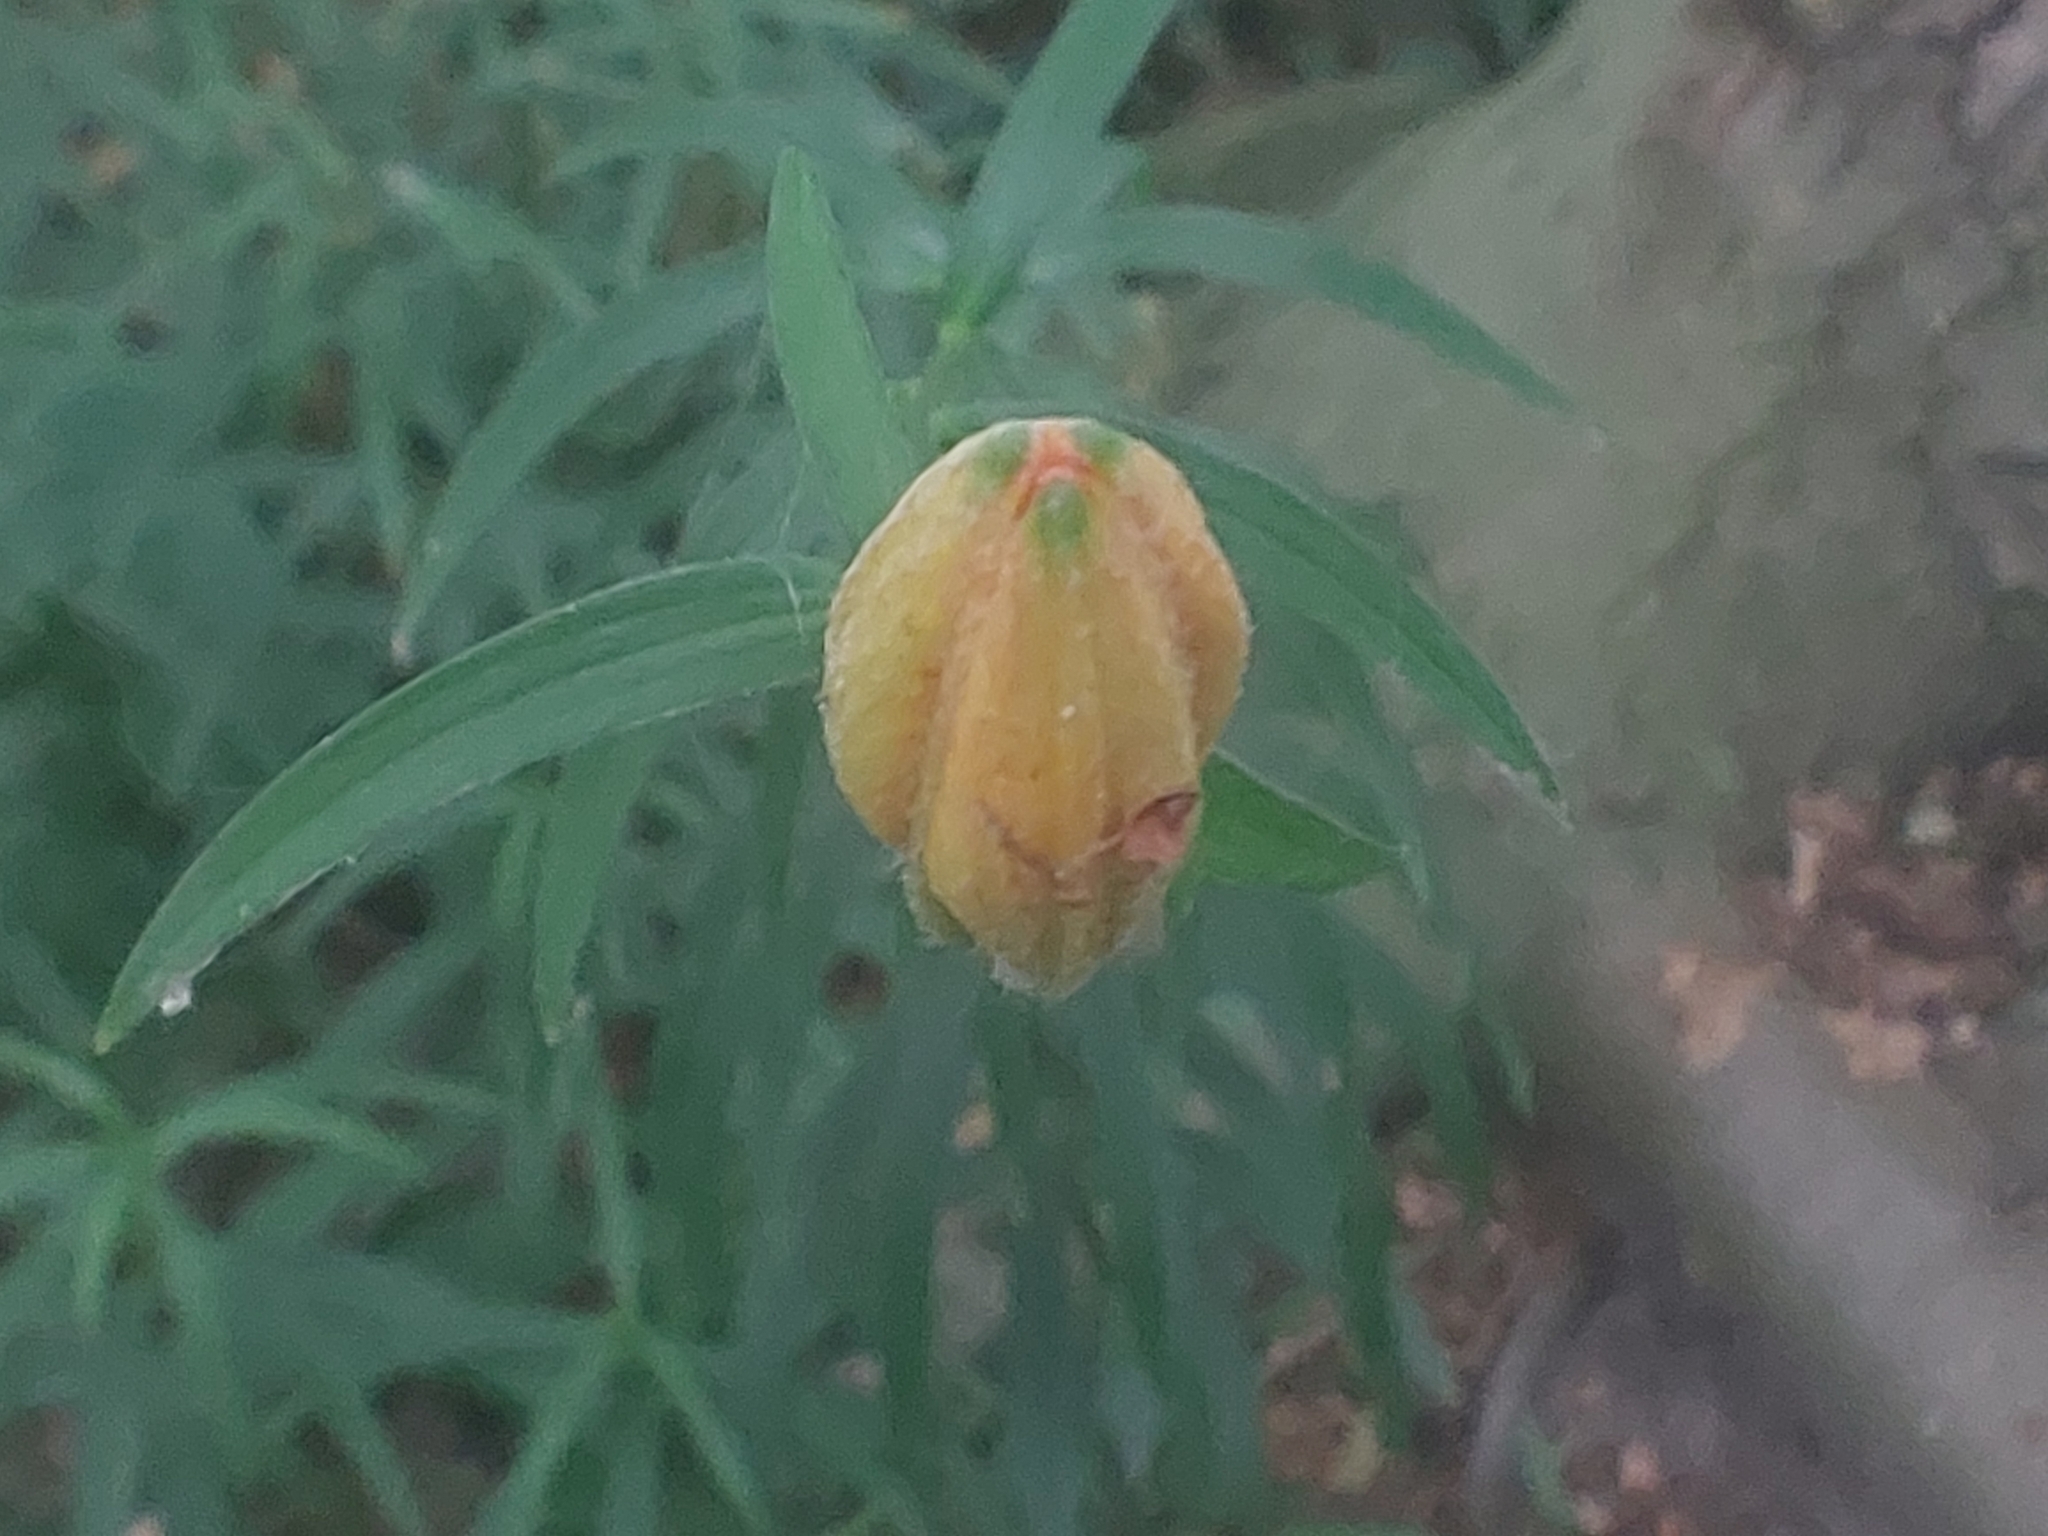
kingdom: Plantae
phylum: Tracheophyta
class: Liliopsida
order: Liliales
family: Liliaceae
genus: Lilium
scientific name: Lilium bulbiferum
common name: Orange lily
